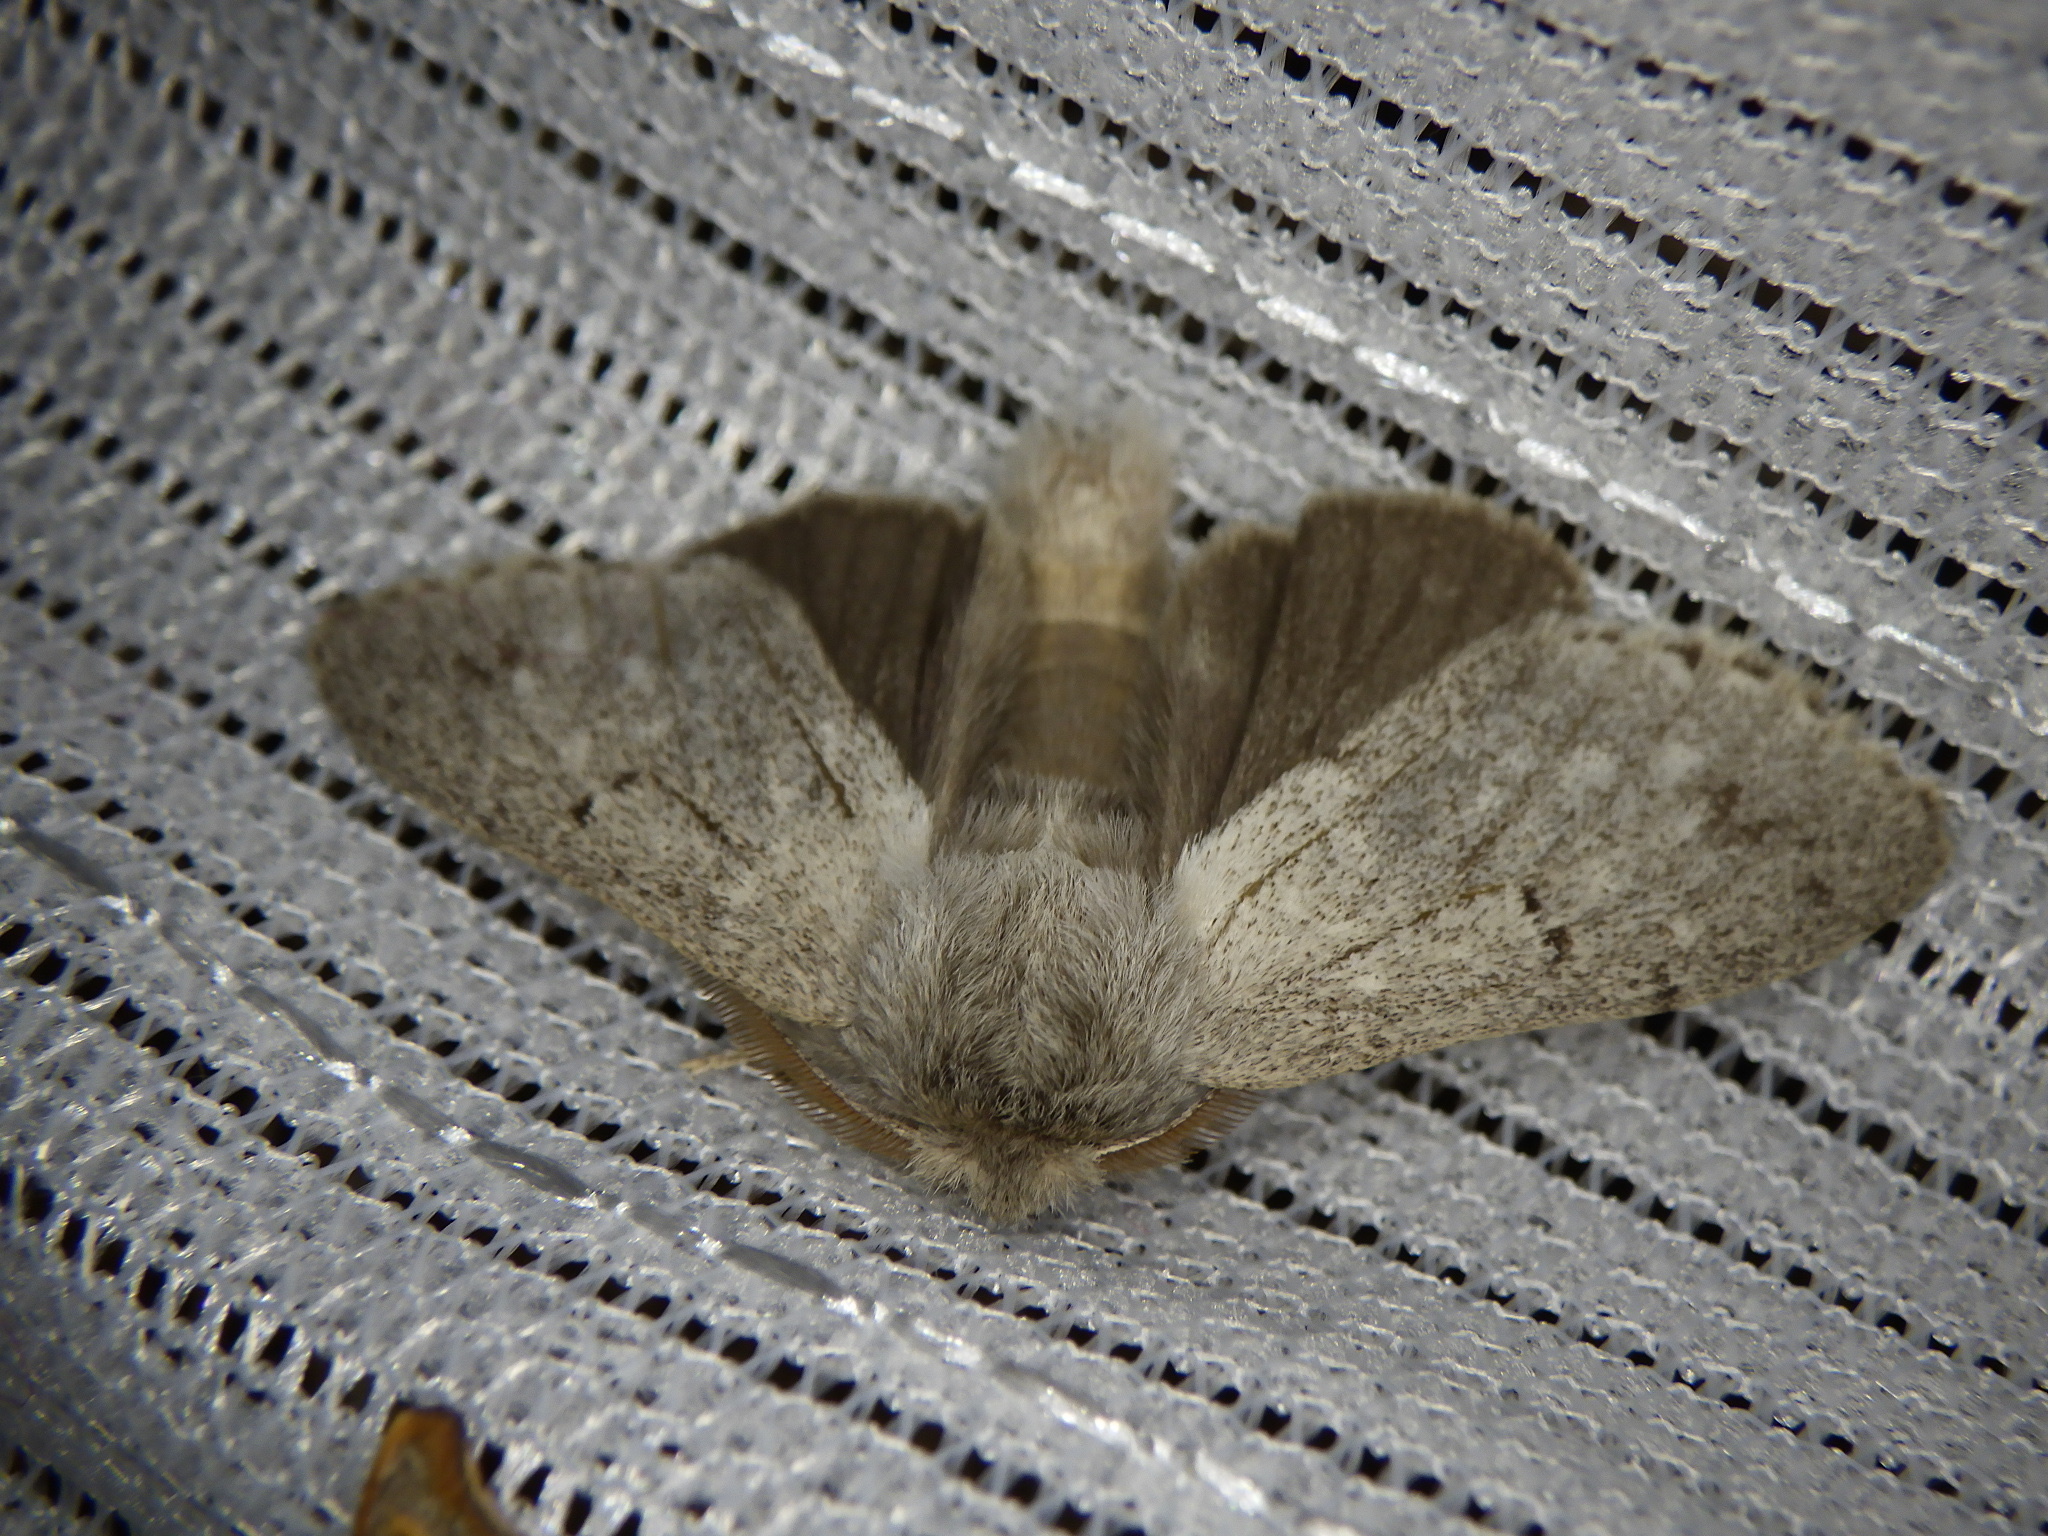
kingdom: Animalia
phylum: Arthropoda
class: Insecta
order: Lepidoptera
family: Notodontidae
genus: Cnethodonta
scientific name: Cnethodonta grisescens
